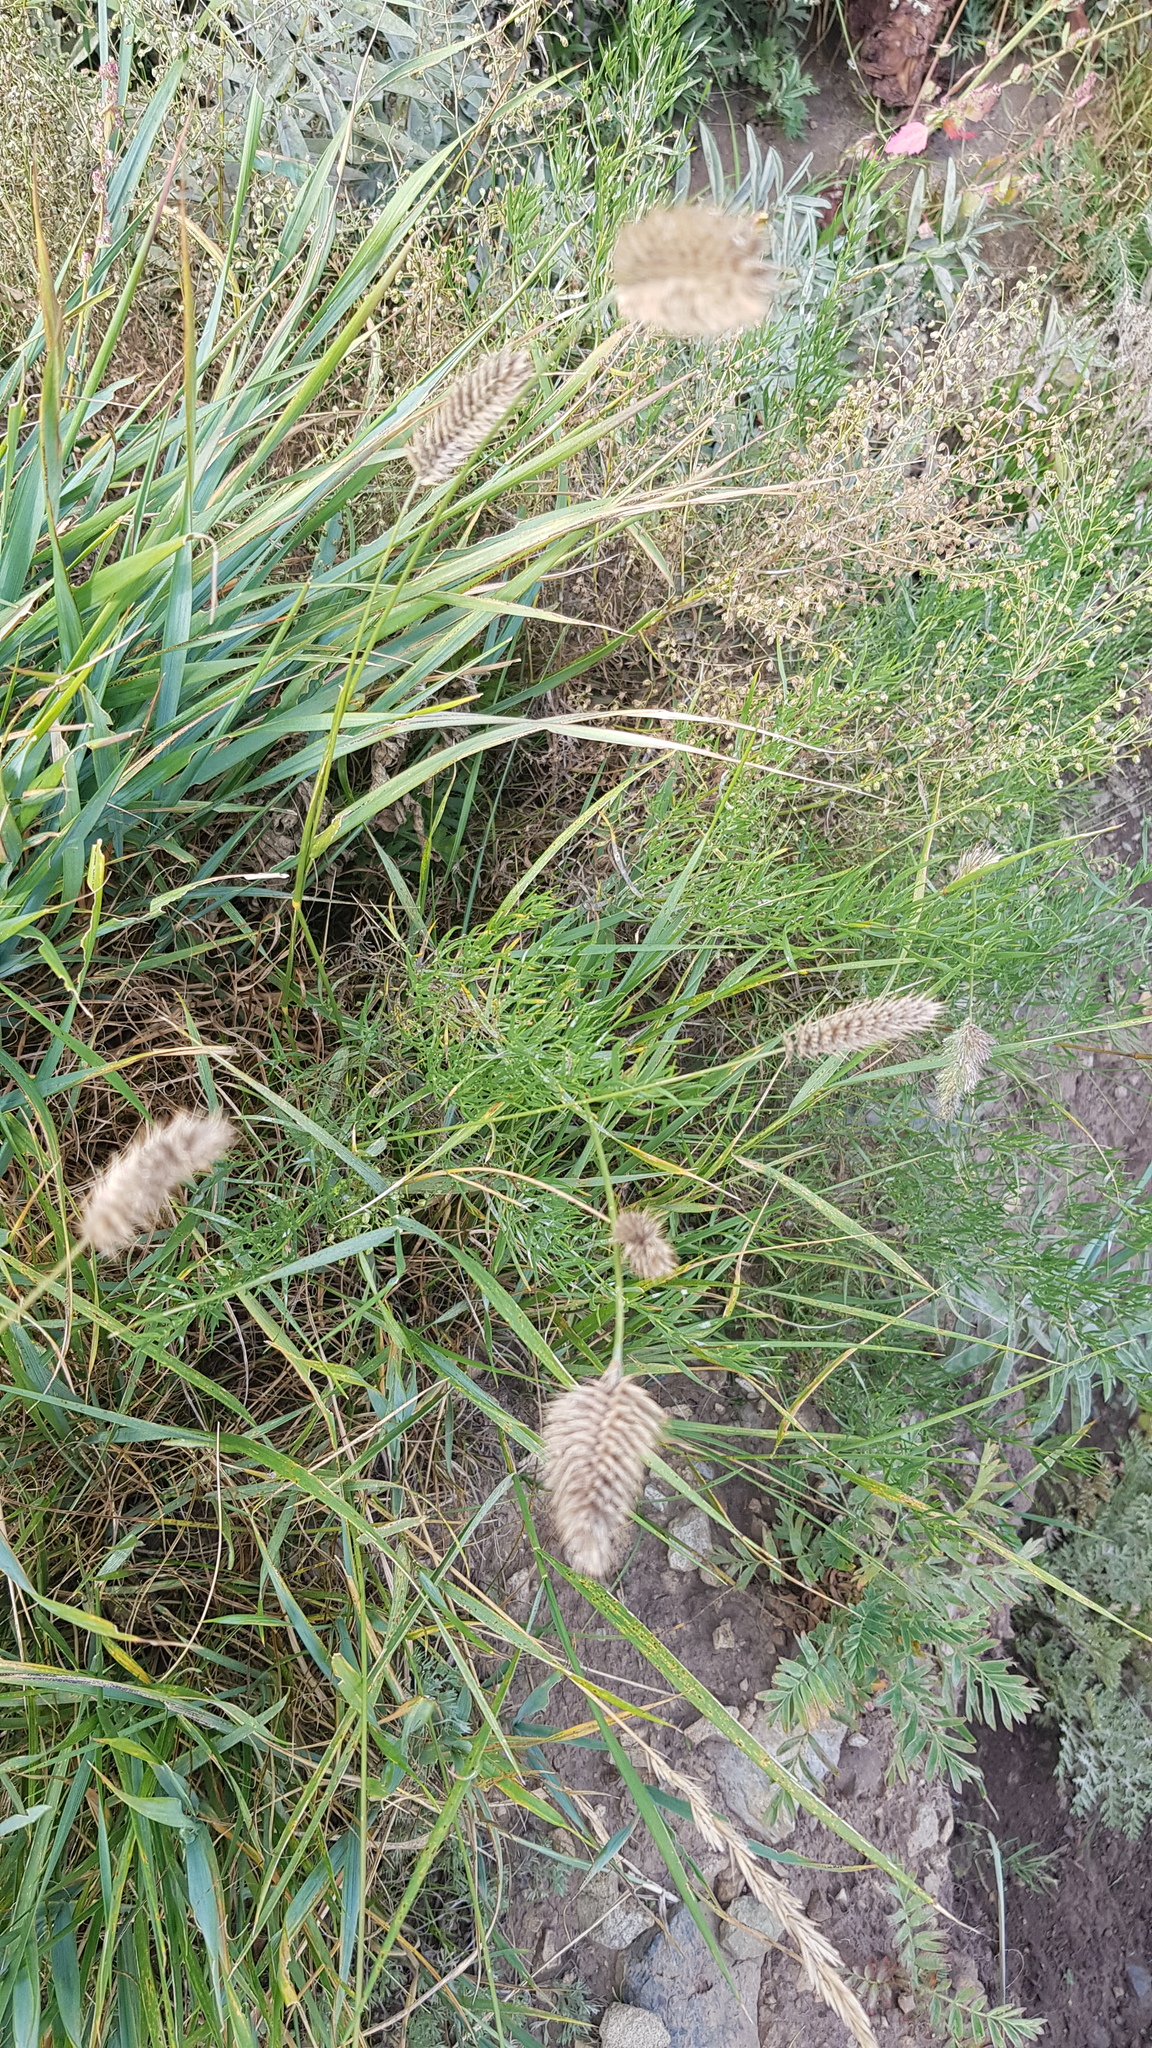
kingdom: Plantae
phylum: Tracheophyta
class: Liliopsida
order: Poales
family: Poaceae
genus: Agropyron
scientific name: Agropyron cristatum
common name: Crested wheatgrass
